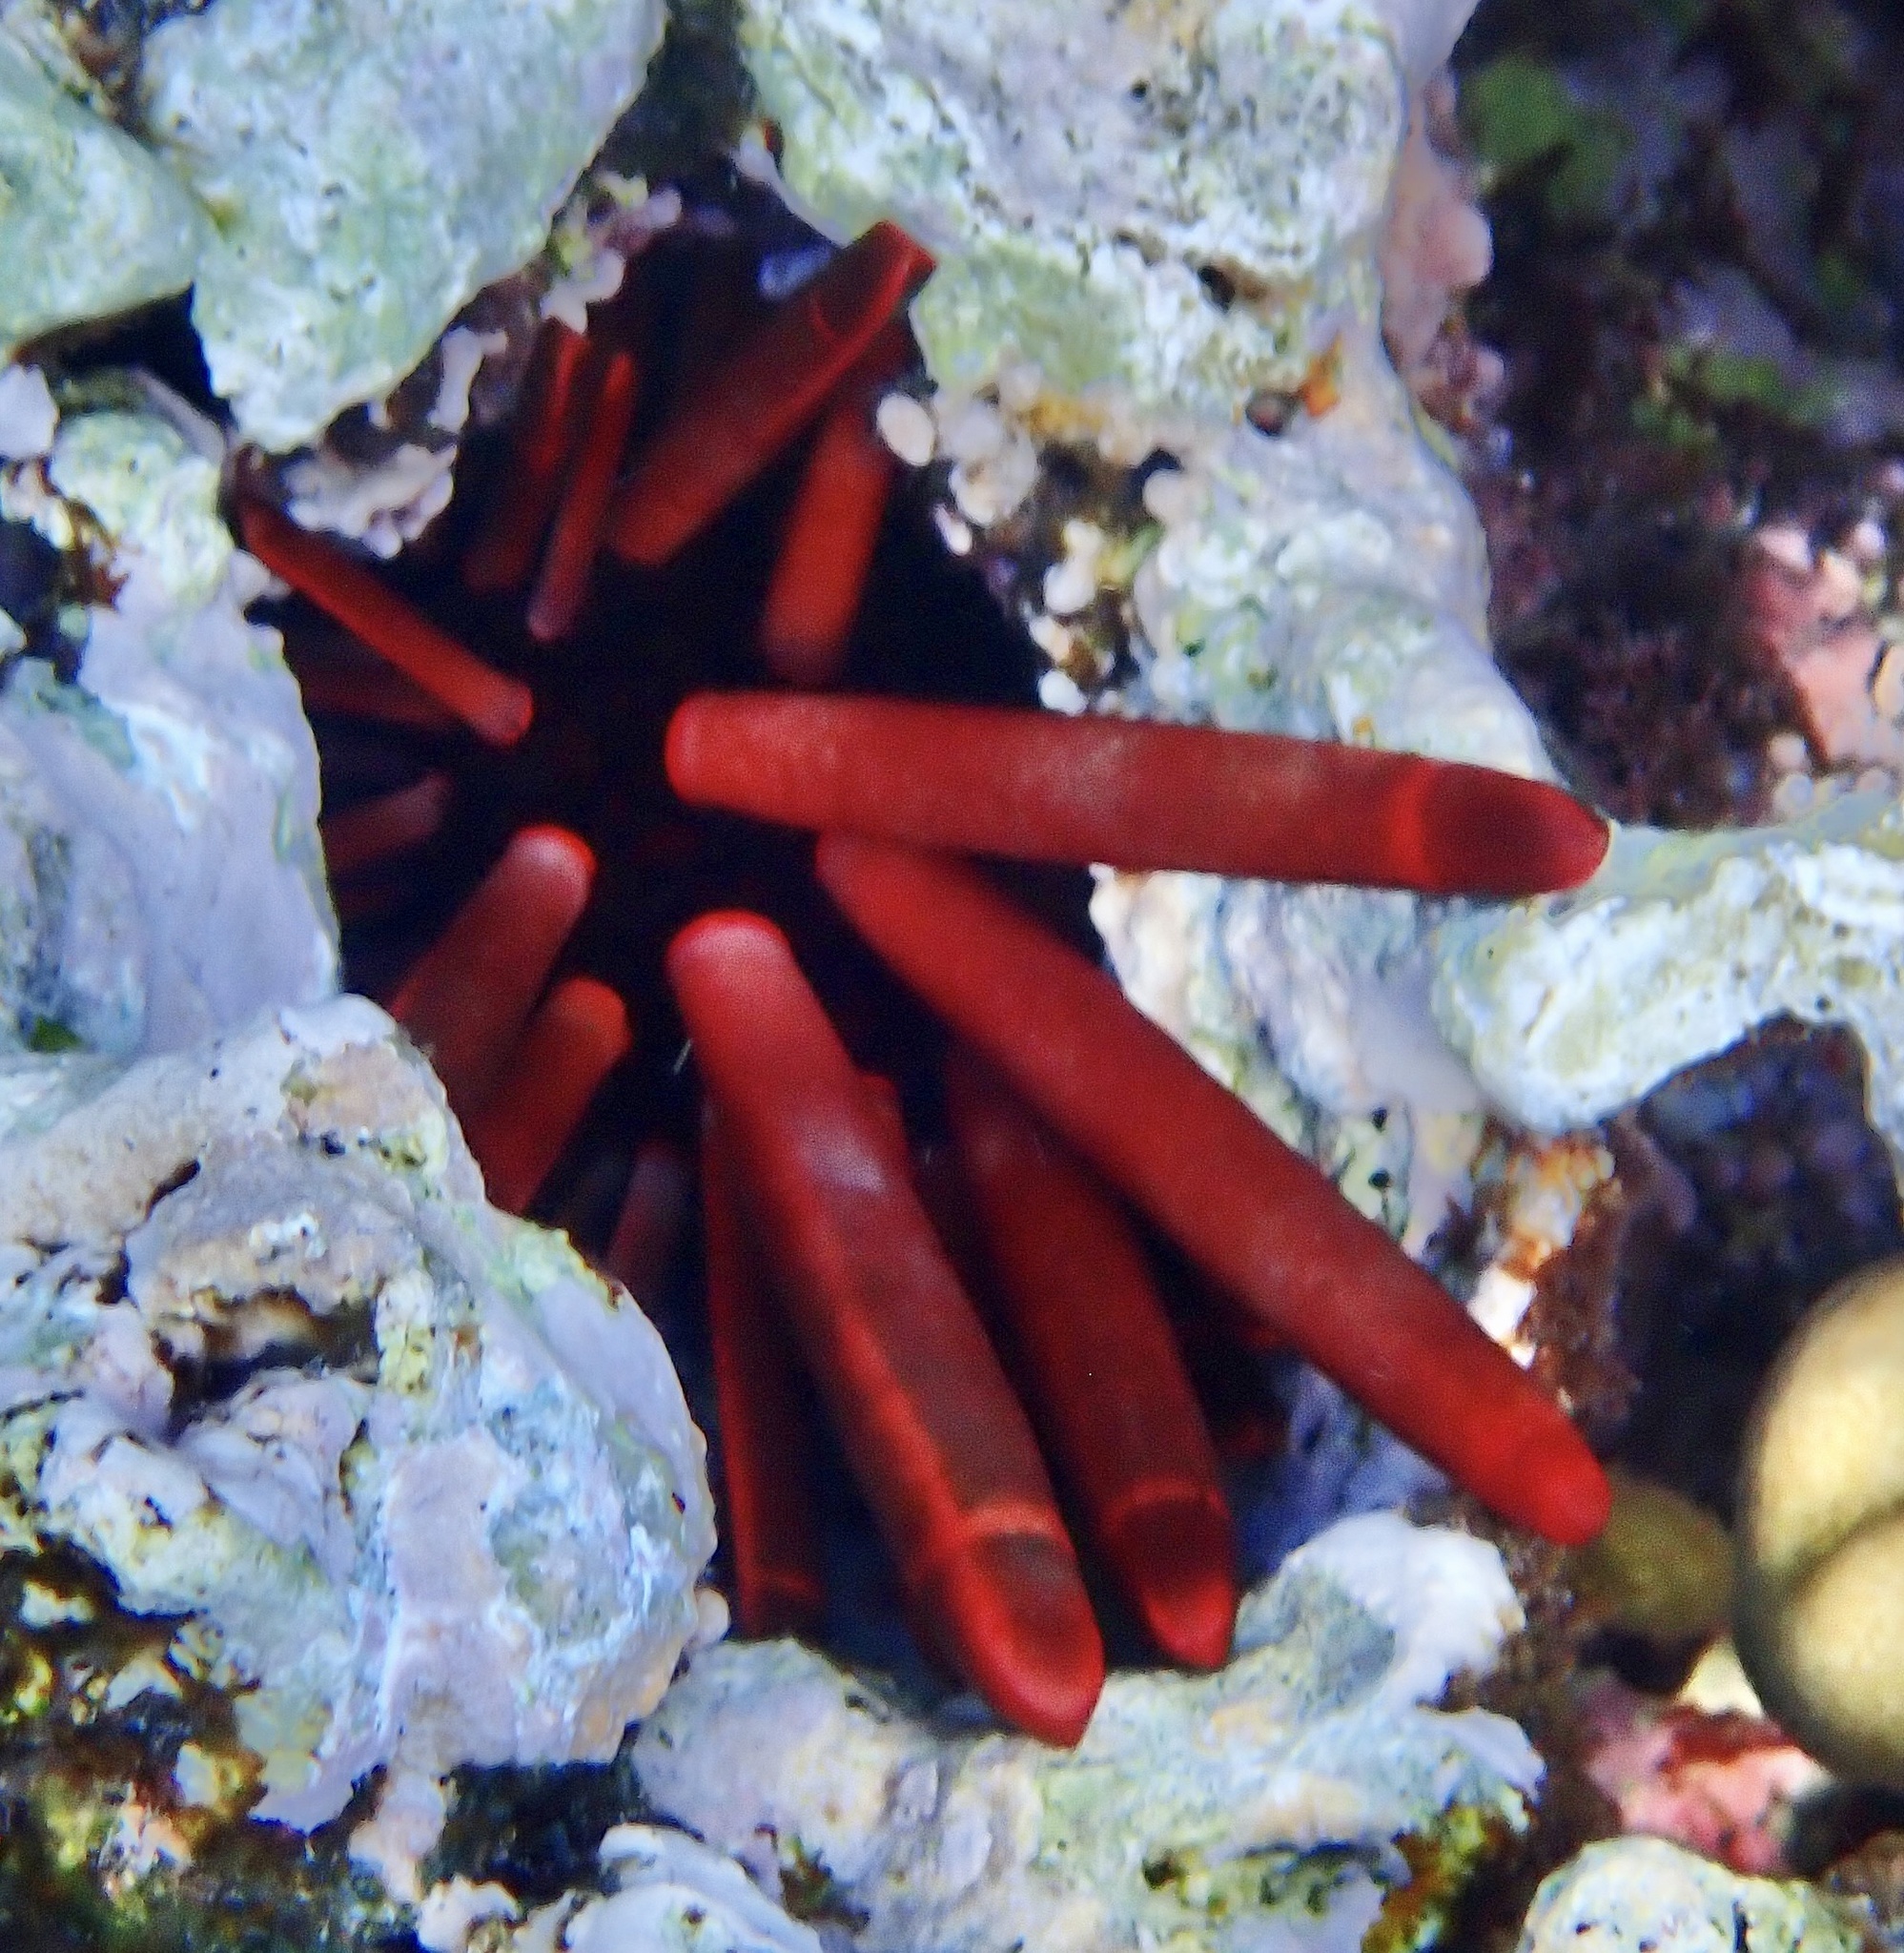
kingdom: Animalia
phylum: Echinodermata
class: Echinoidea
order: Camarodonta
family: Echinometridae
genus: Heterocentrotus
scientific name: Heterocentrotus mamillatus
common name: Slate pencil urchin
